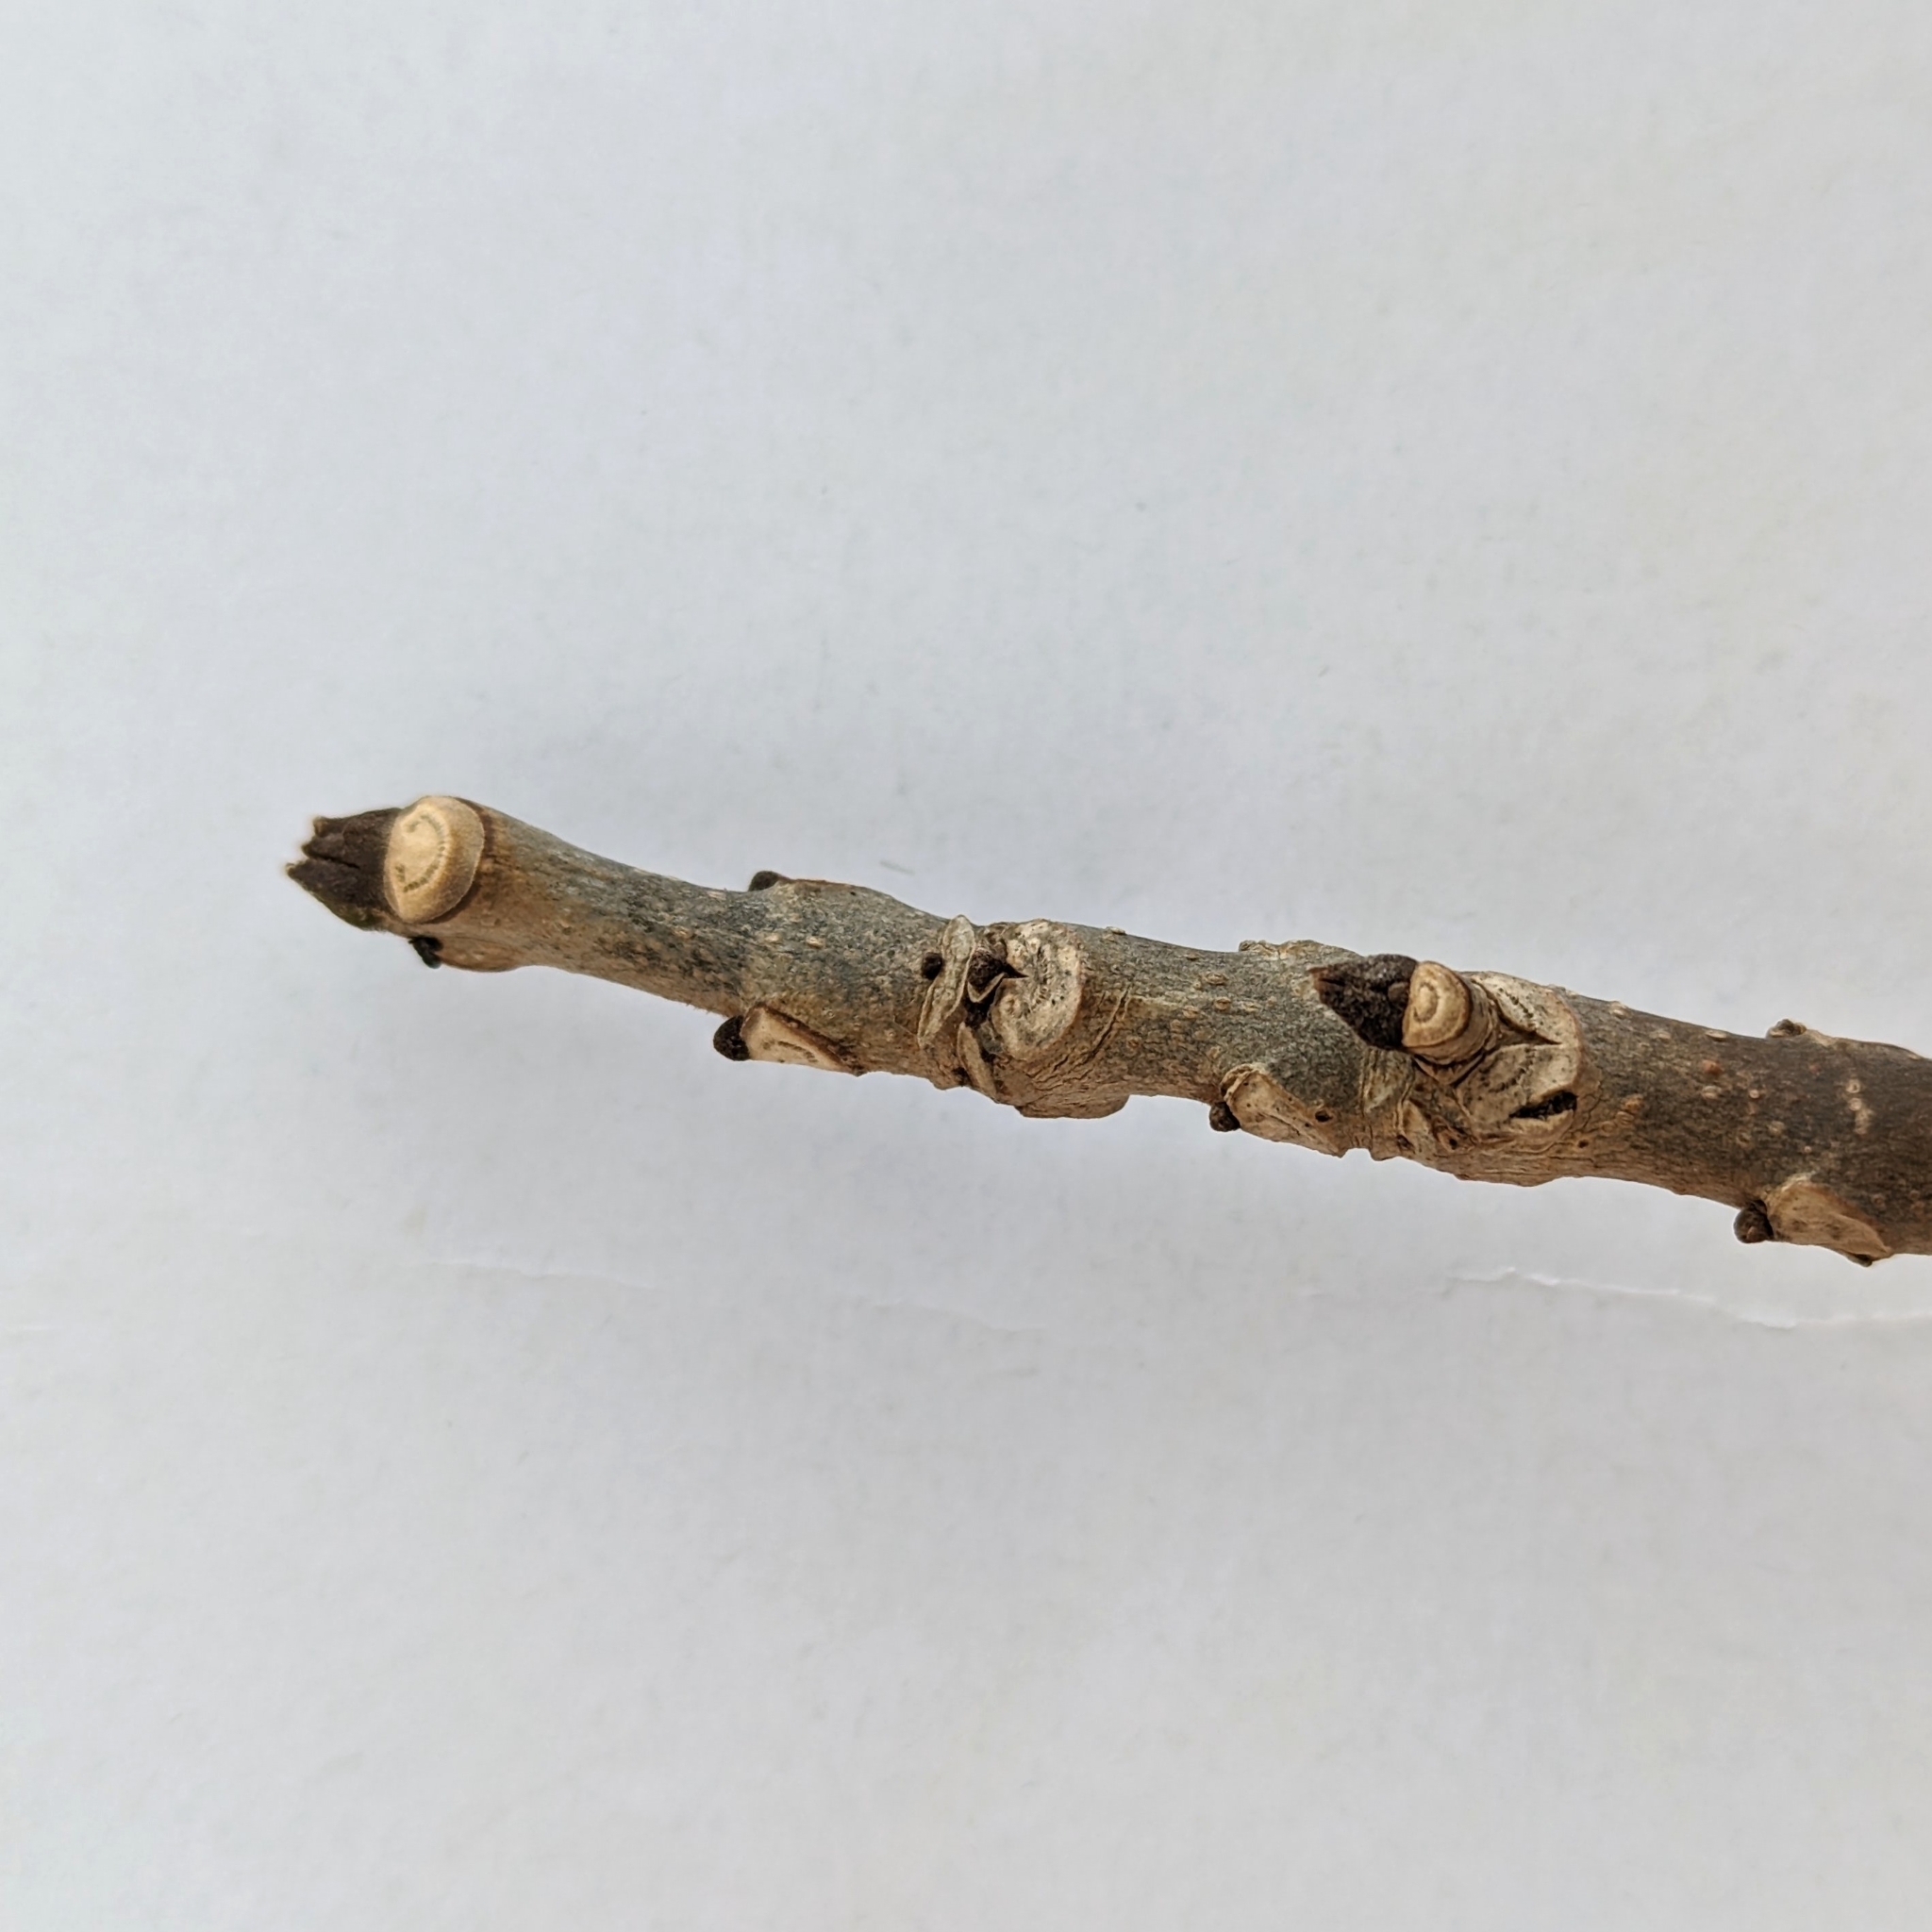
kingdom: Plantae
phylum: Tracheophyta
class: Magnoliopsida
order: Lamiales
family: Oleaceae
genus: Fraxinus
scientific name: Fraxinus pennsylvanica
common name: Green ash
